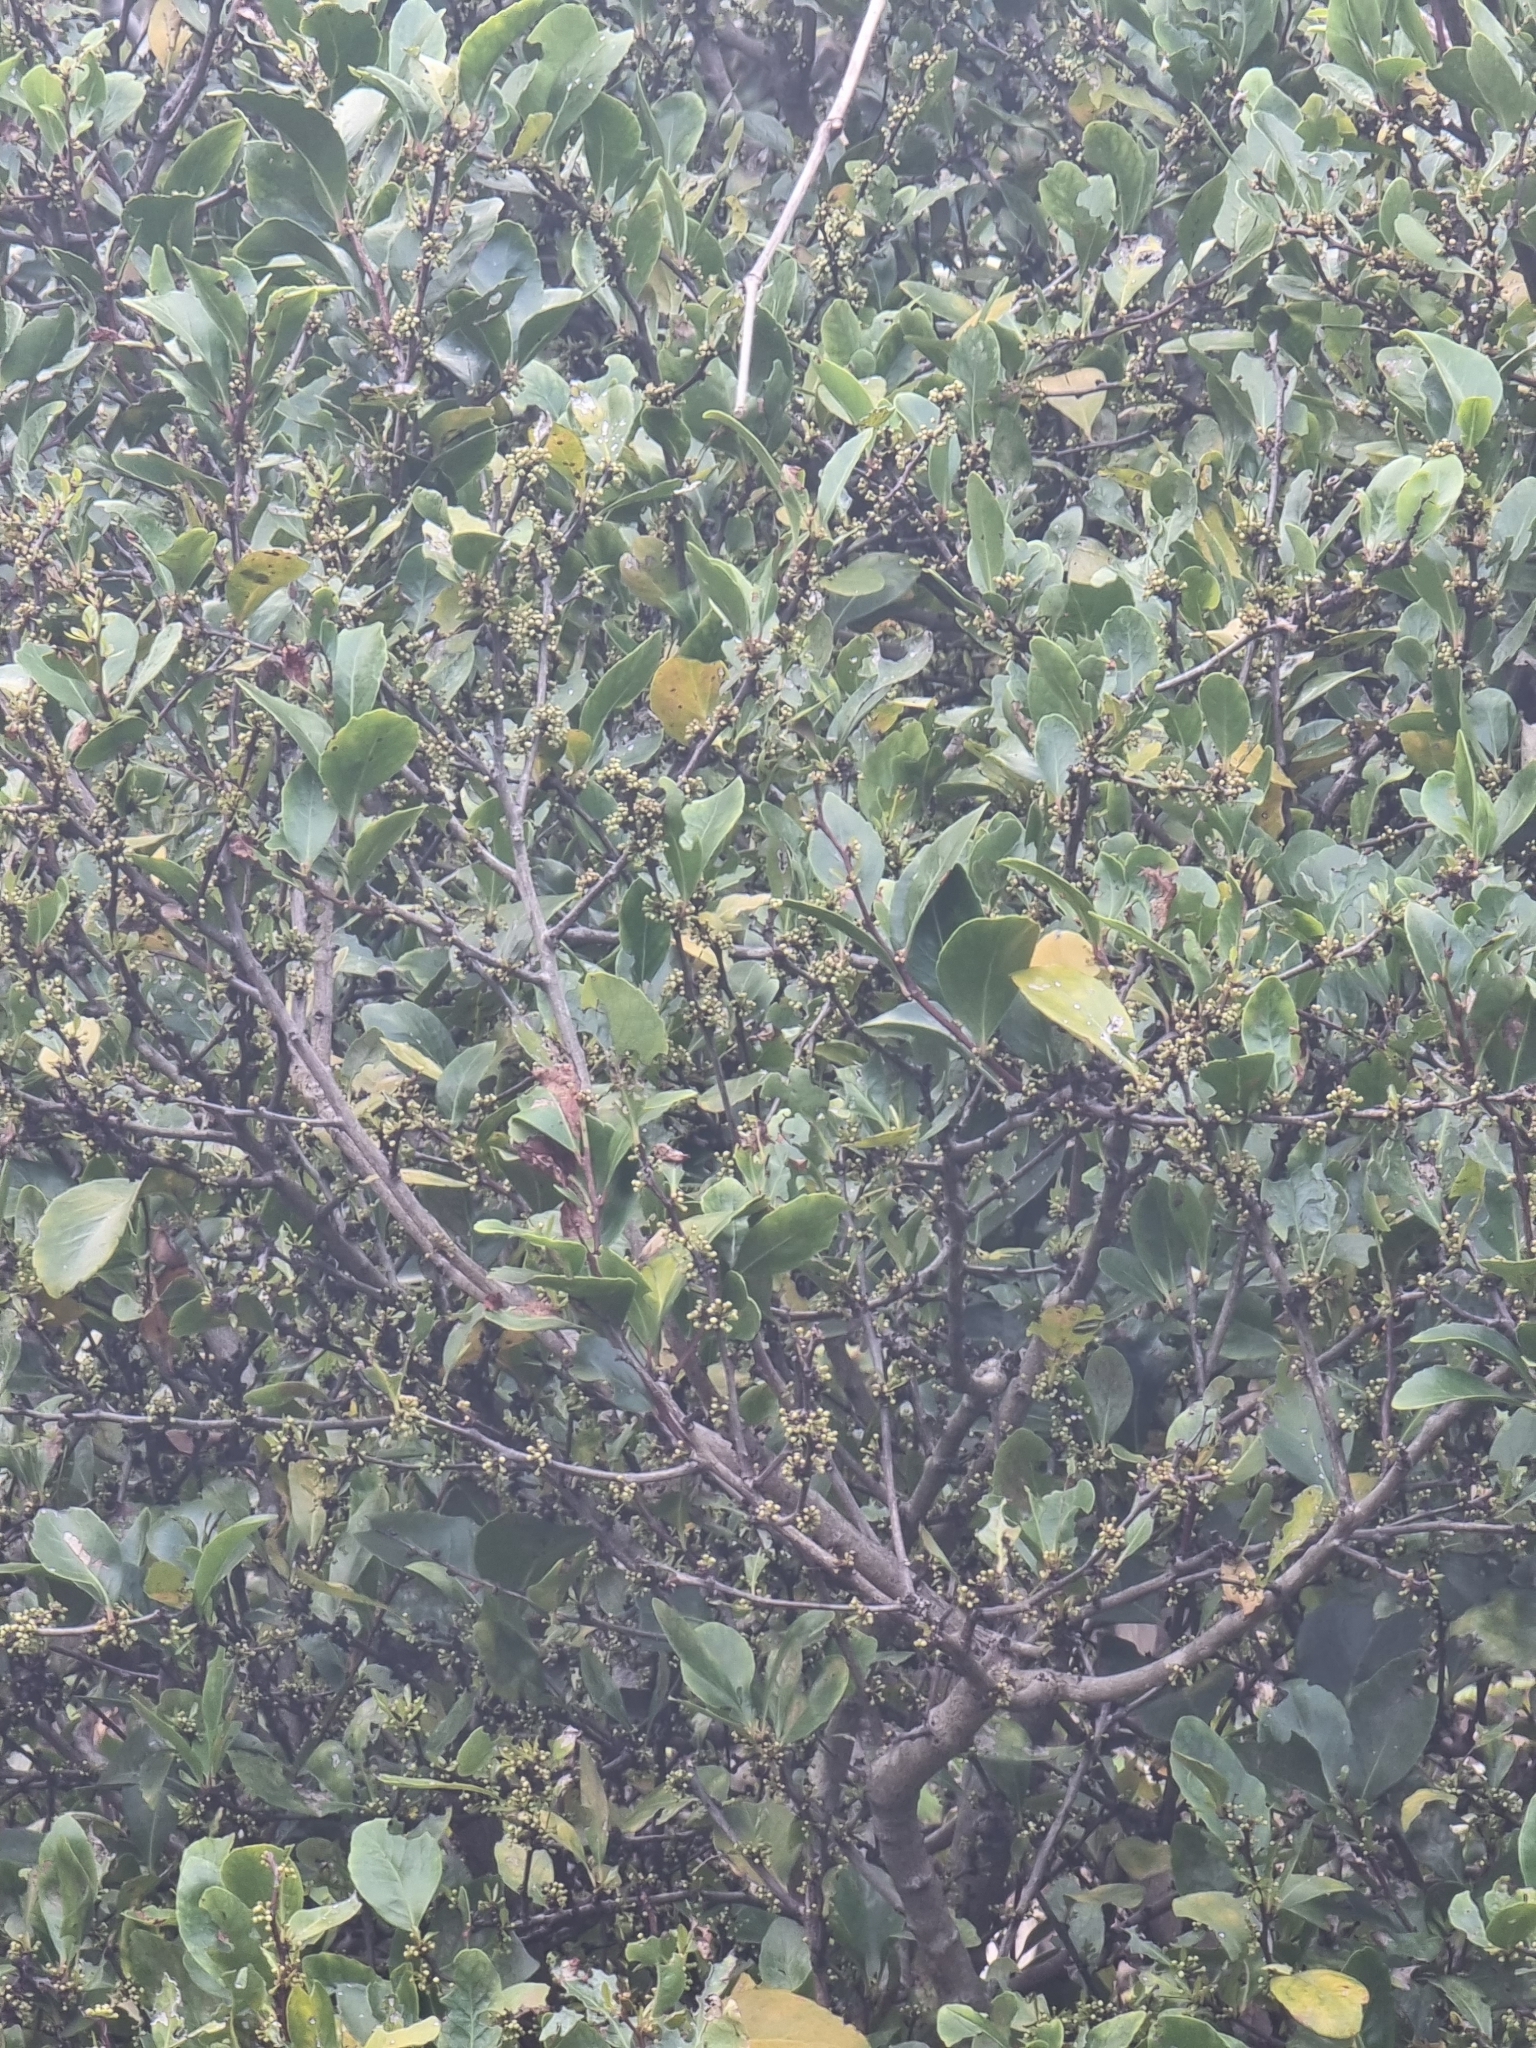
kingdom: Plantae
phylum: Tracheophyta
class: Magnoliopsida
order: Celastrales
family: Celastraceae
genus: Gymnosporia
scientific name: Gymnosporia dryandri
